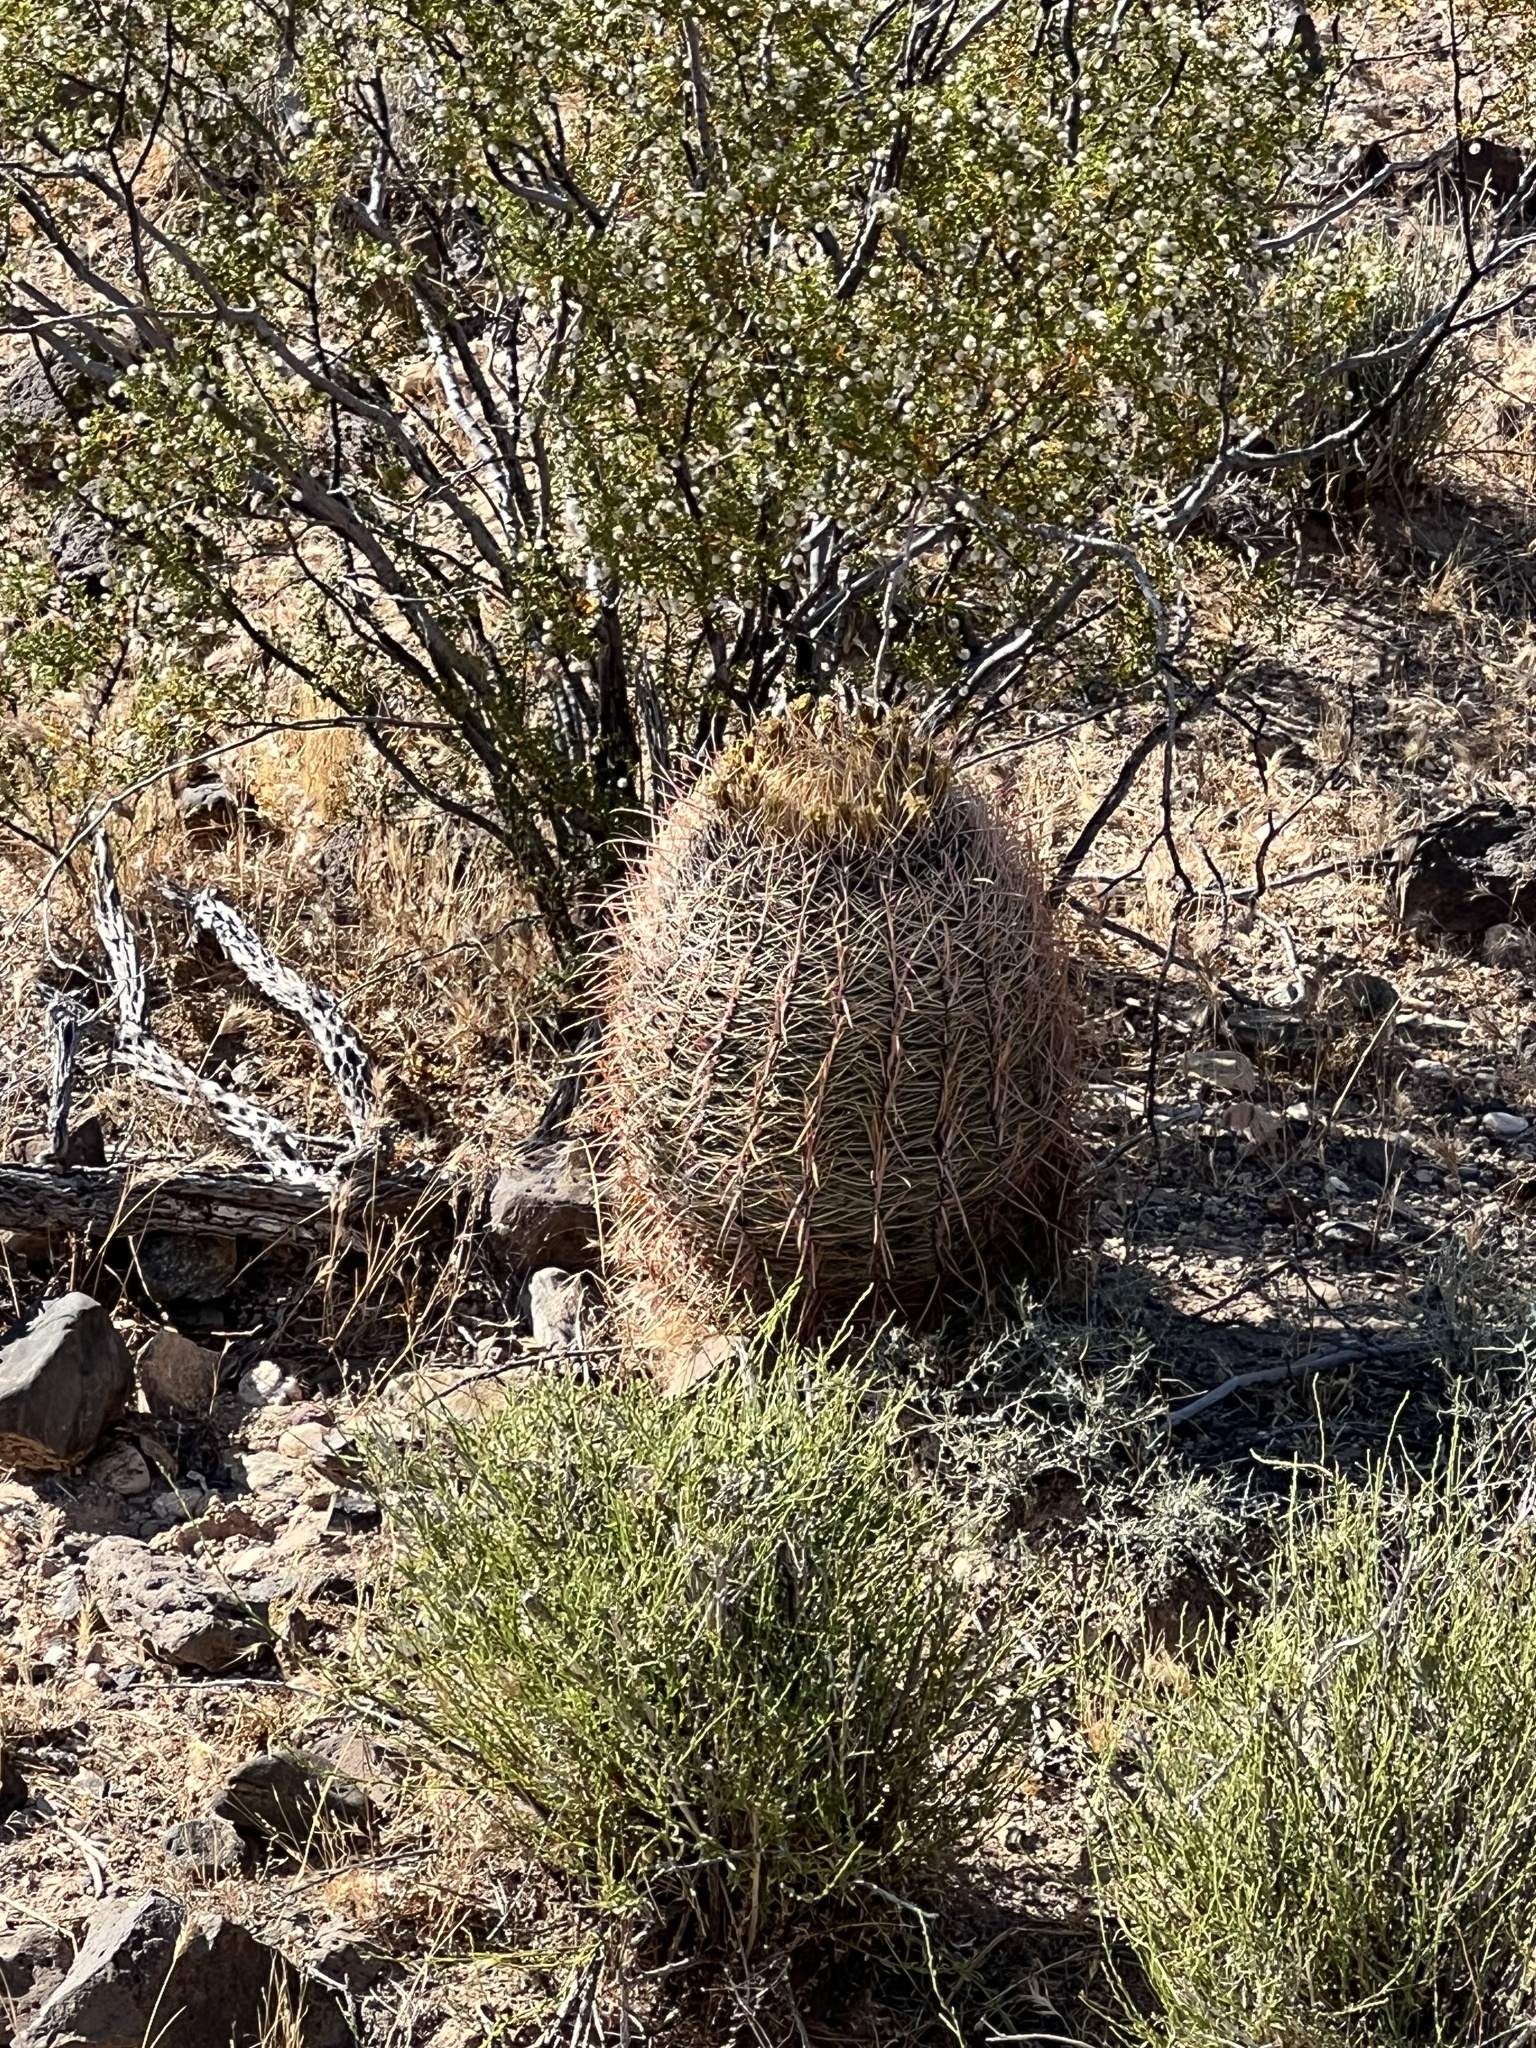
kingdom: Plantae
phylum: Tracheophyta
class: Magnoliopsida
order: Caryophyllales
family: Cactaceae
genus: Ferocactus
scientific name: Ferocactus cylindraceus
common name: California barrel cactus
